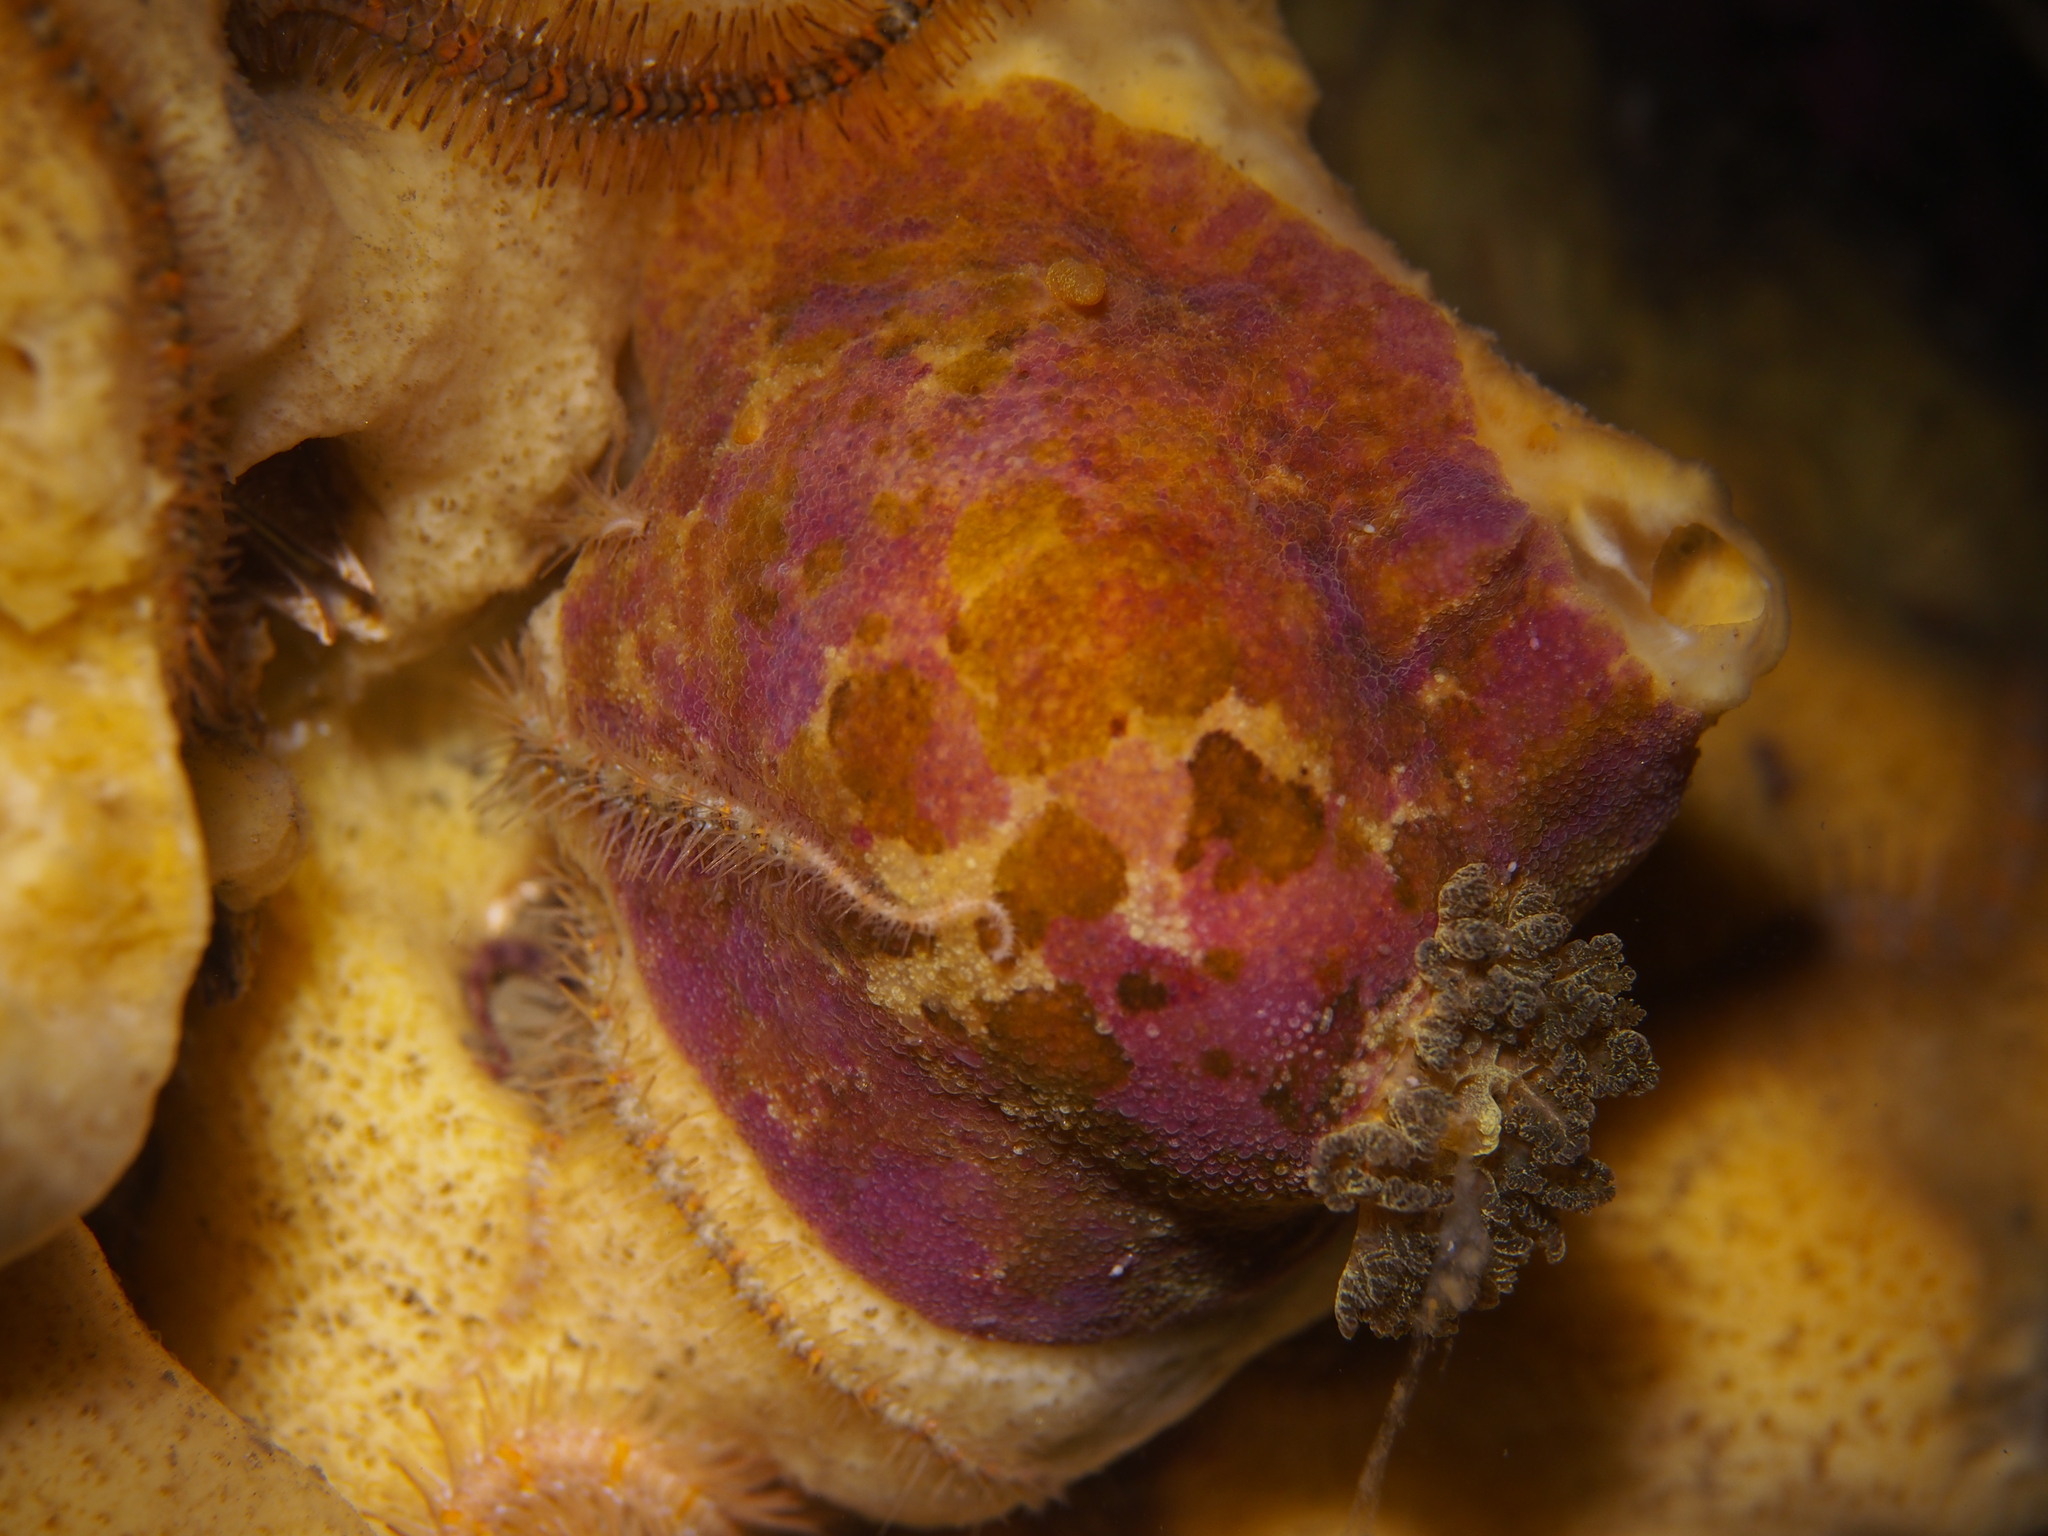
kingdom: Animalia
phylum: Mollusca
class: Gastropoda
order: Nudibranchia
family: Dorididae
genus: Doris
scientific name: Doris pseudoargus
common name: Sea lemon
